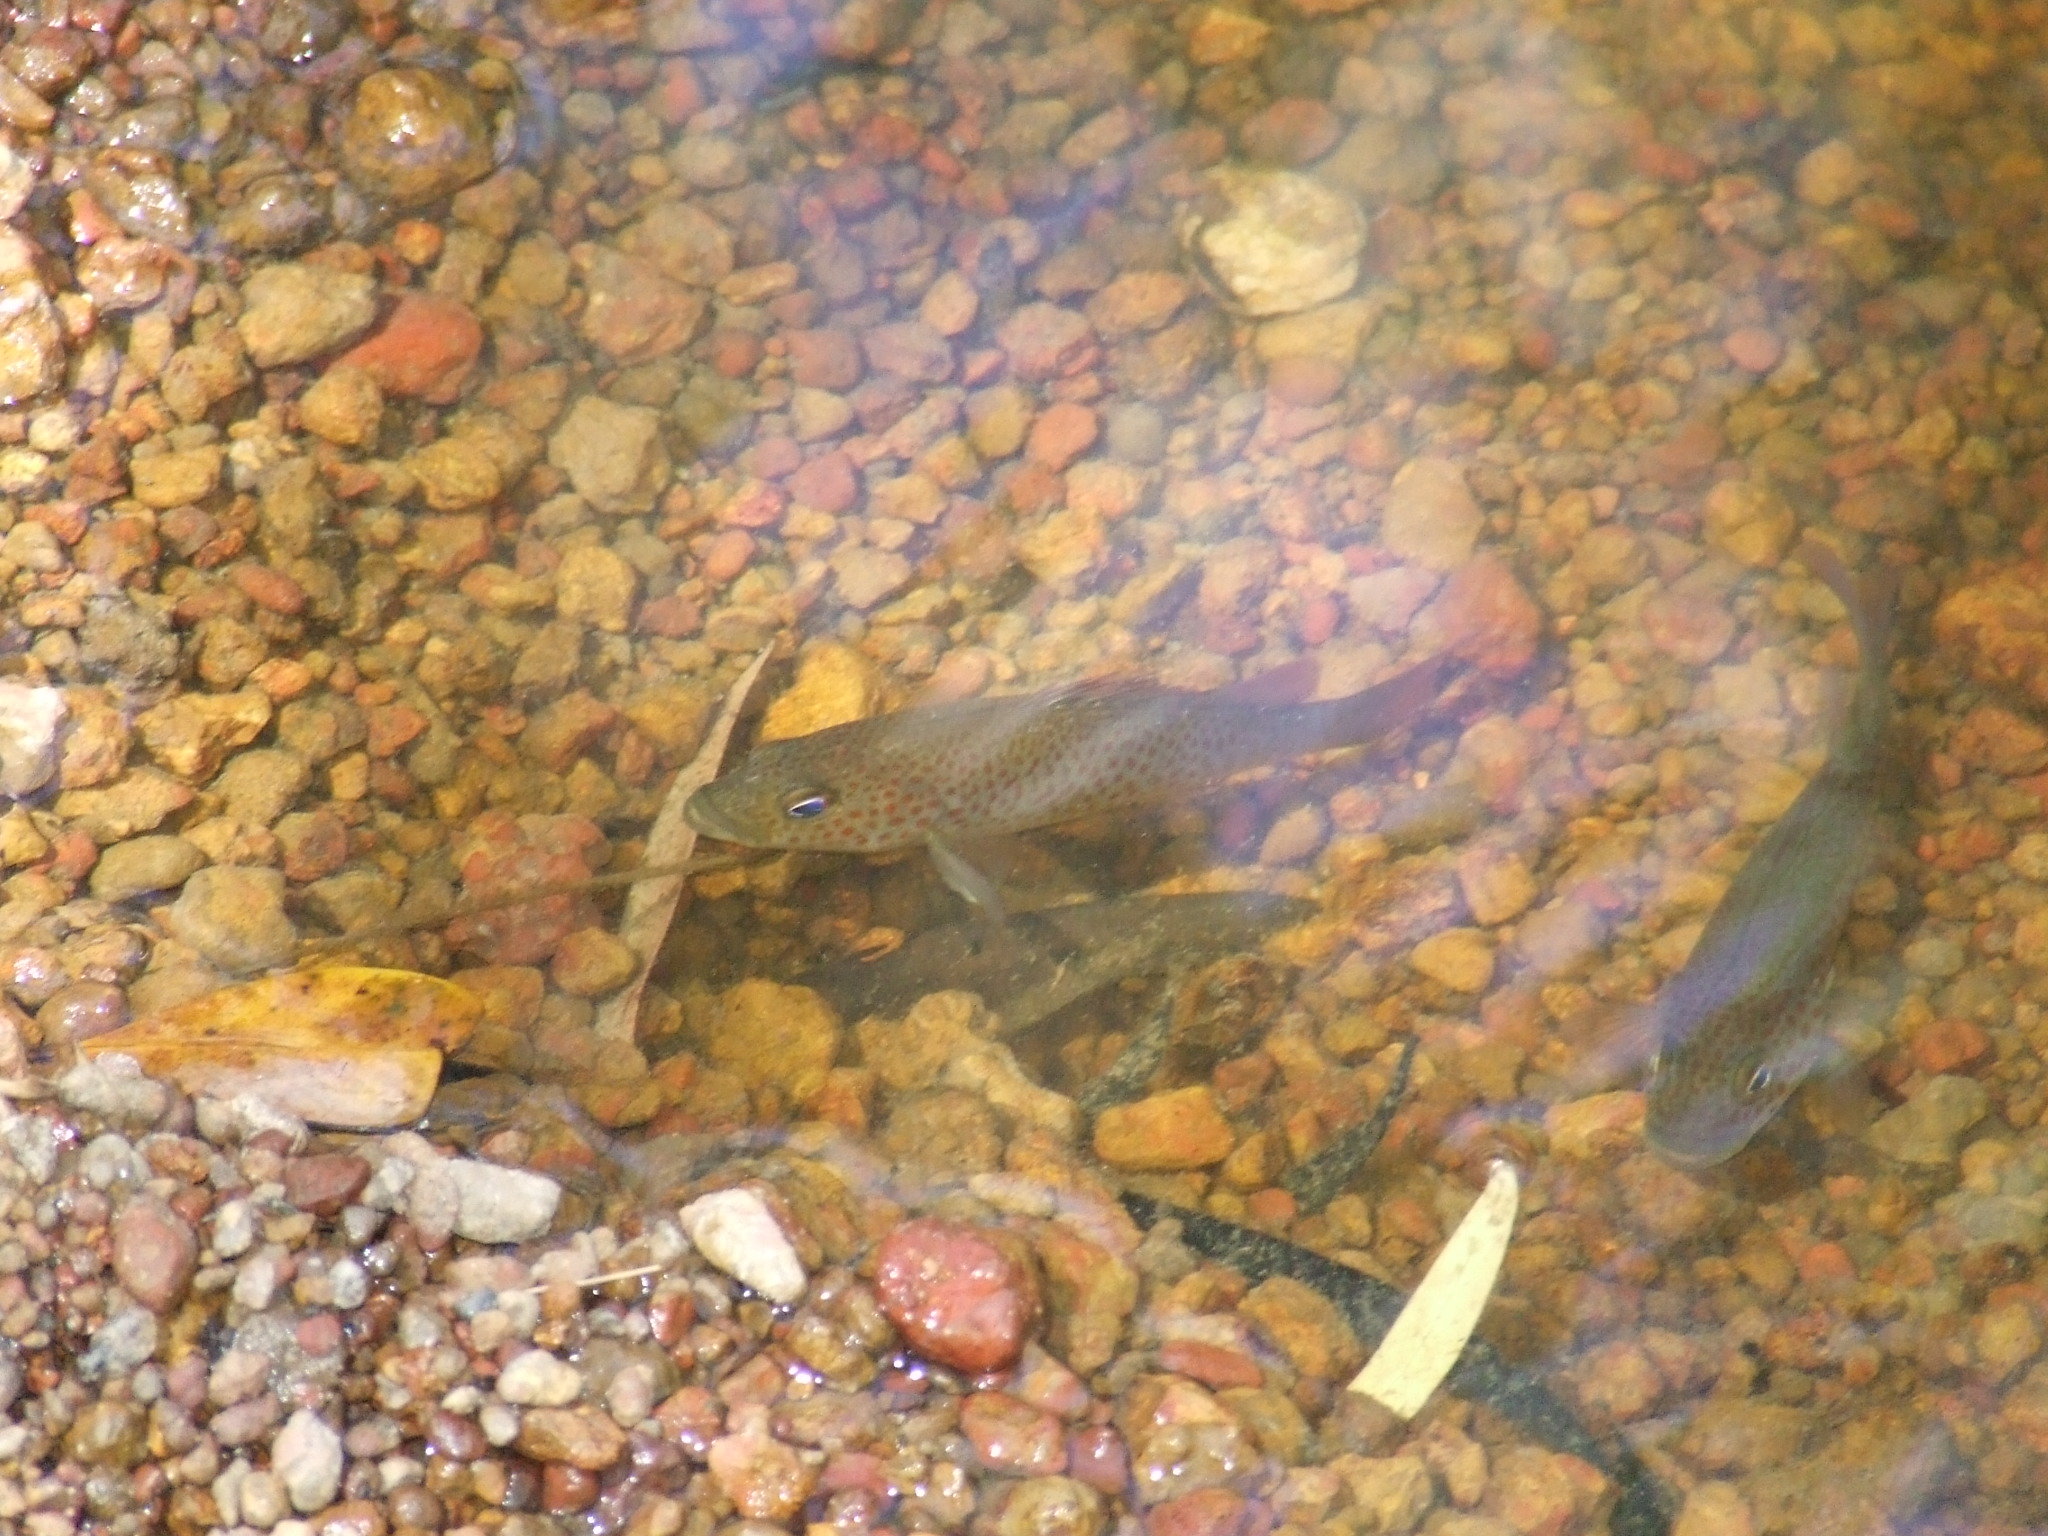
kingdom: Animalia
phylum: Chordata
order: Perciformes
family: Terapontidae
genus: Leiopotherapon
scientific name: Leiopotherapon unicolor
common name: Bobby
